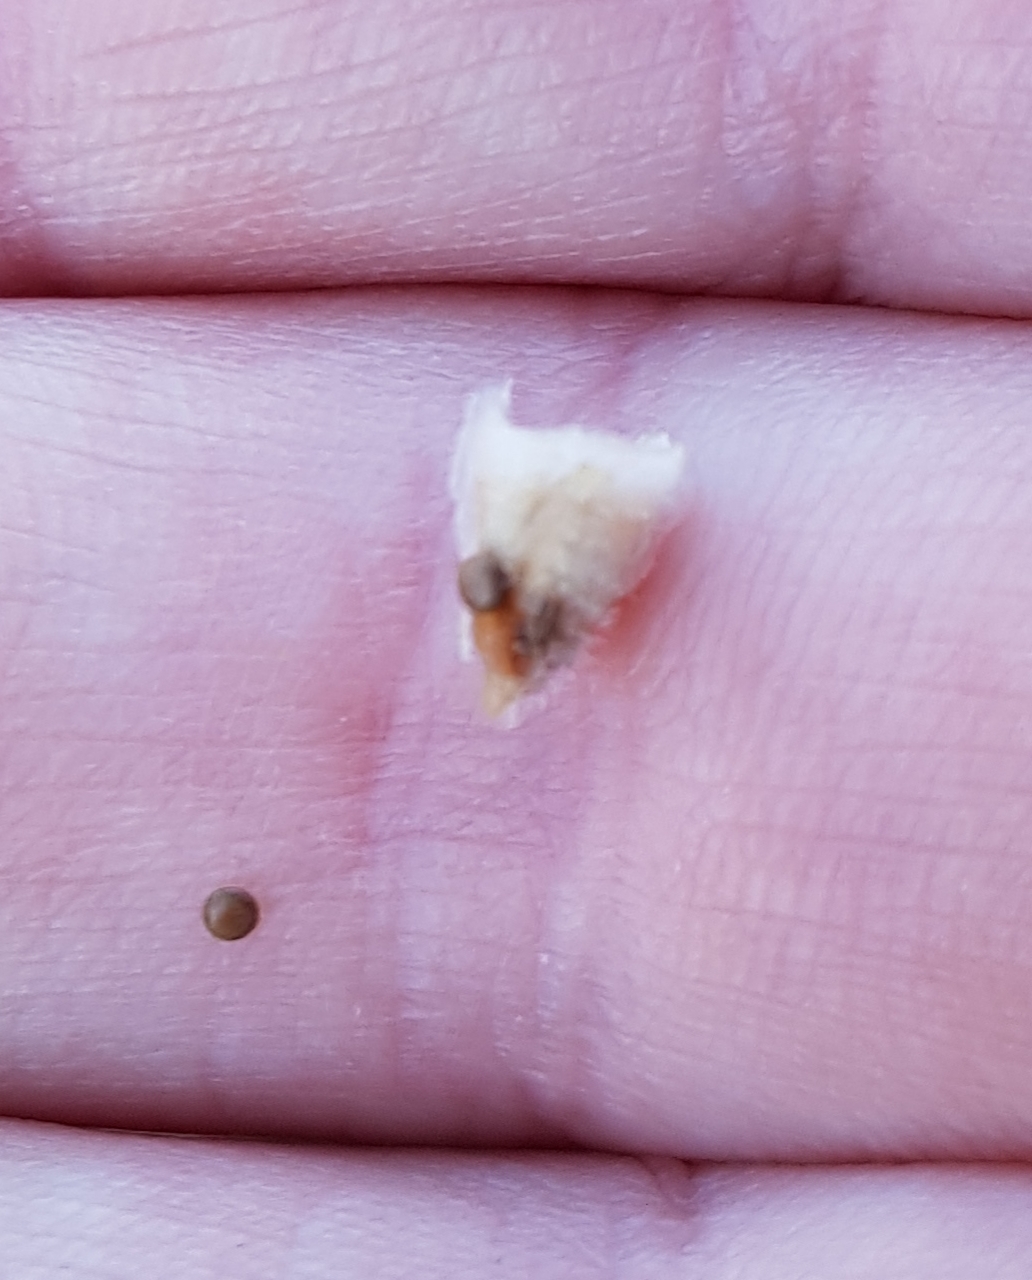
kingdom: Fungi
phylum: Basidiomycota
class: Agaricomycetes
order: Agaricales
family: Agaricaceae
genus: Nidula
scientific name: Nidula candida
